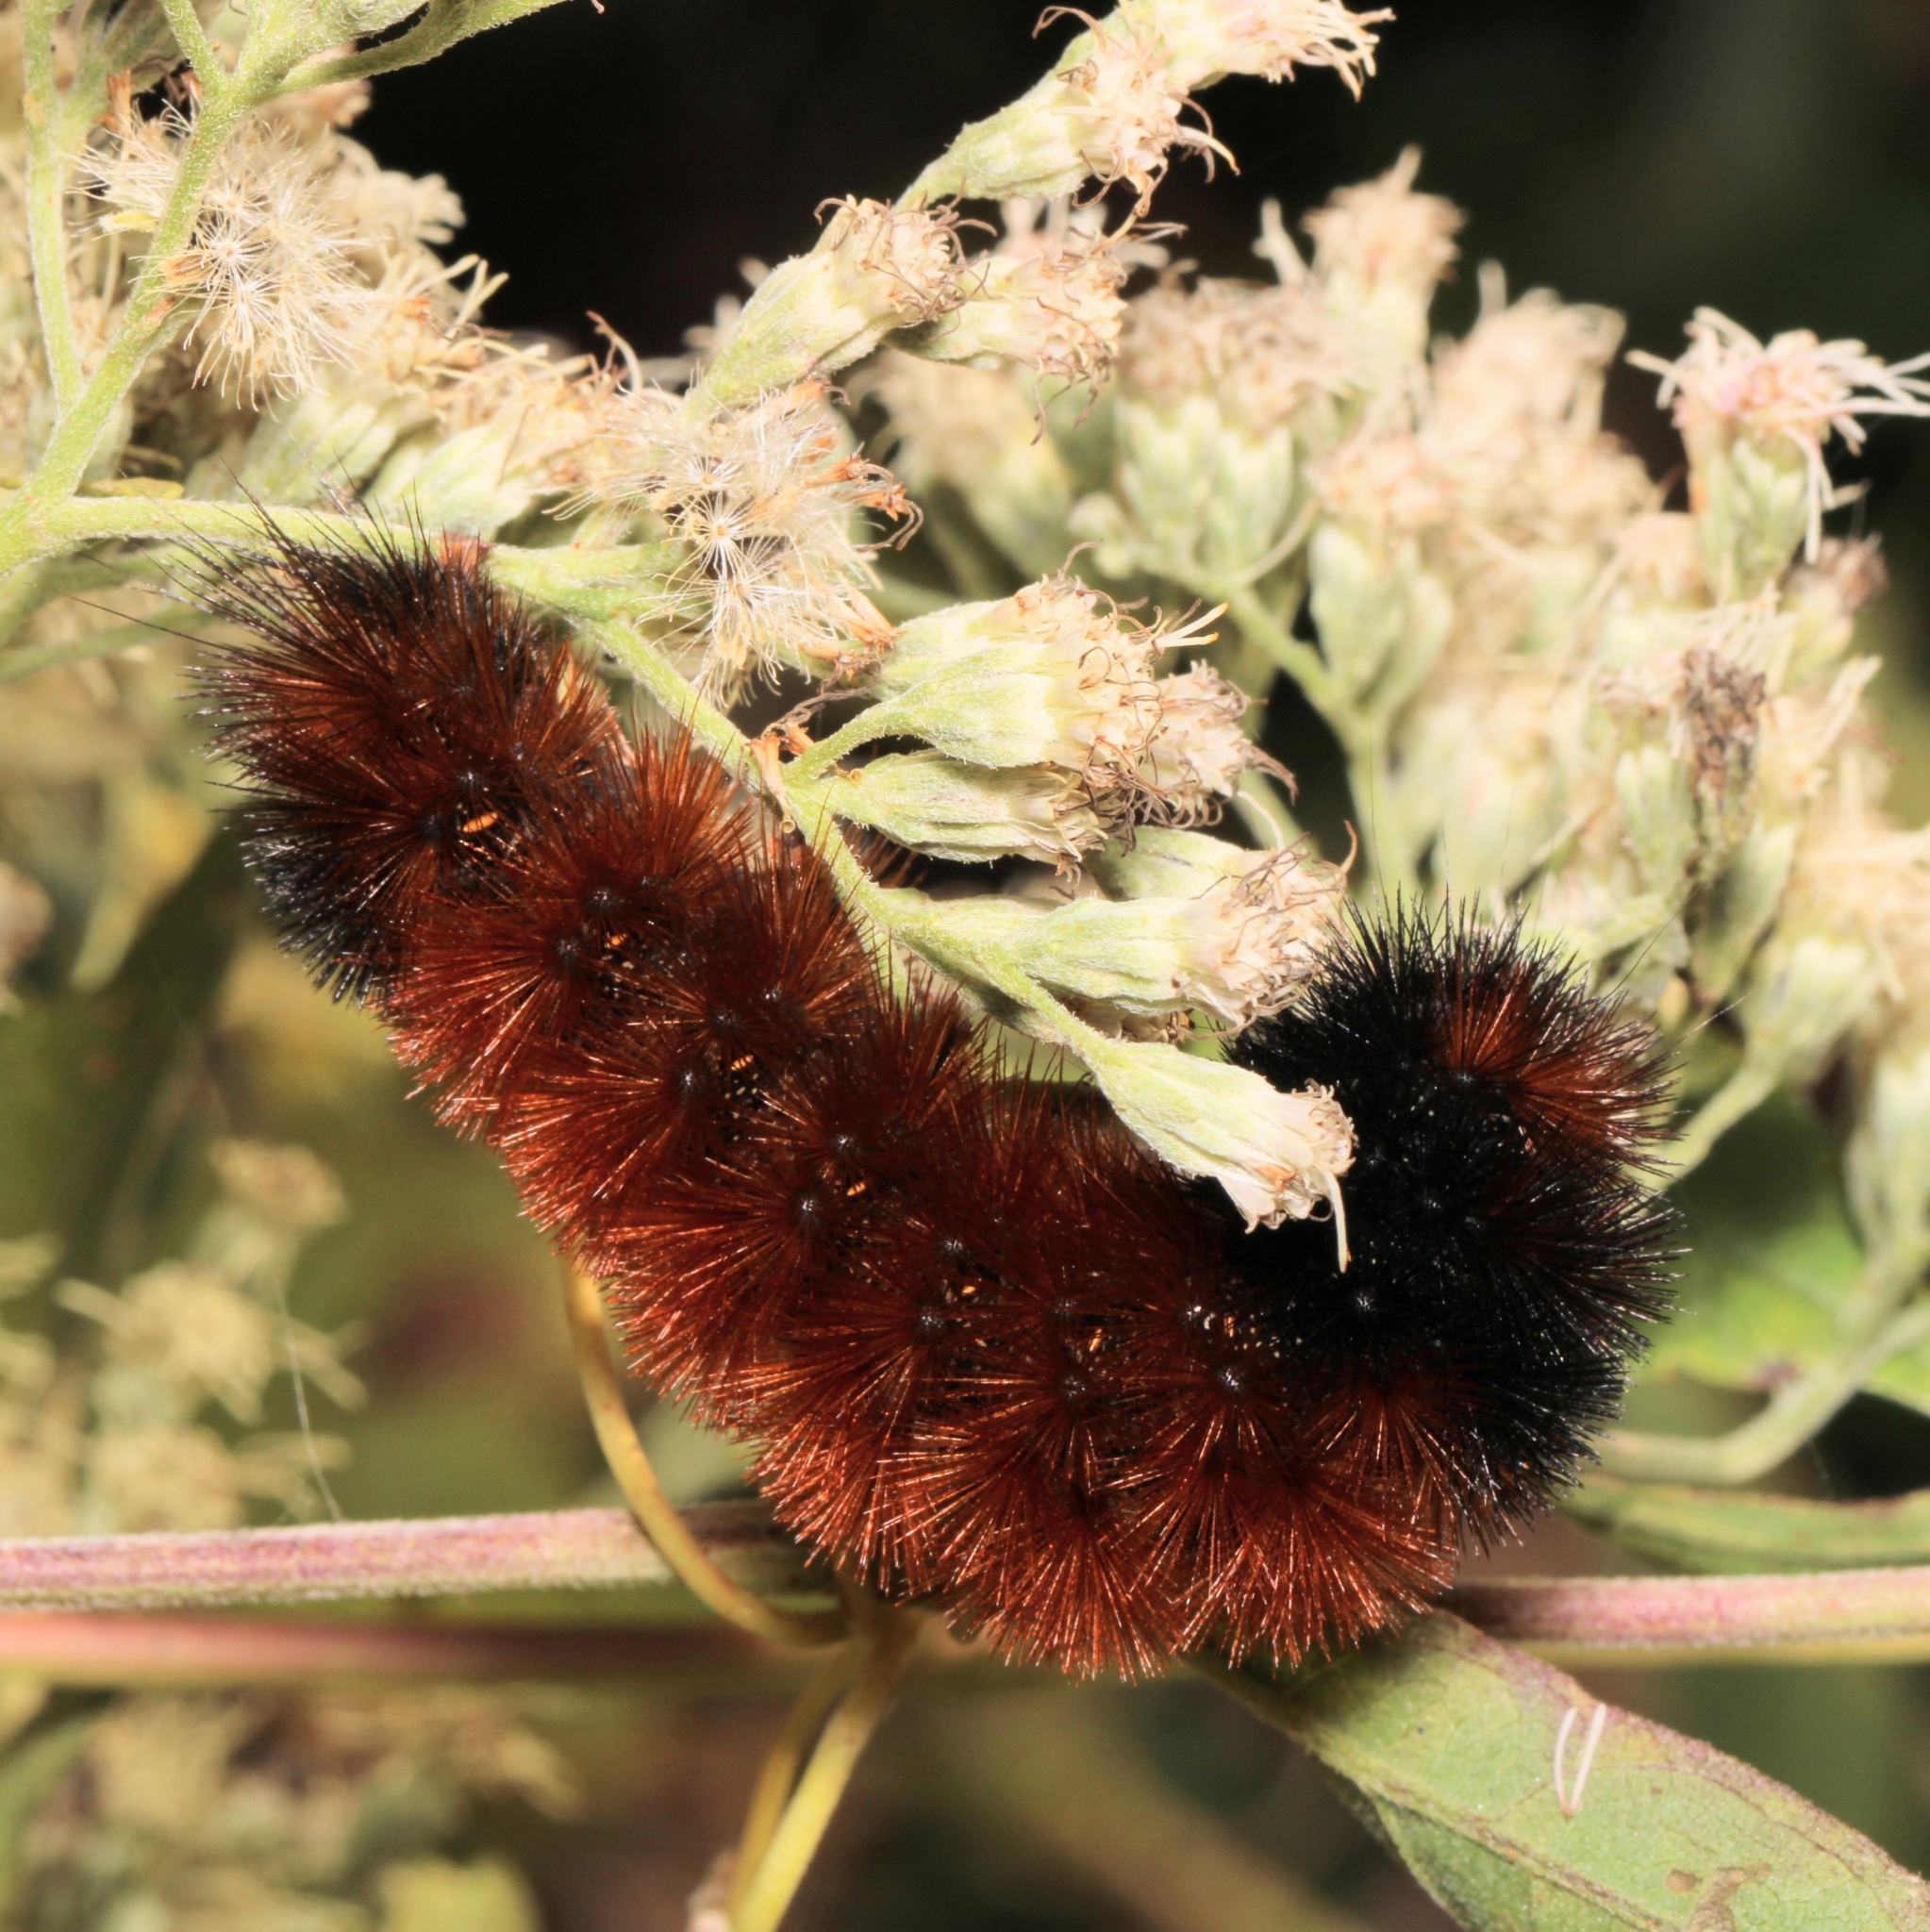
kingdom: Animalia
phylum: Arthropoda
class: Insecta
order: Lepidoptera
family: Erebidae
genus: Pyrrharctia
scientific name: Pyrrharctia isabella
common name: Isabella tiger moth
